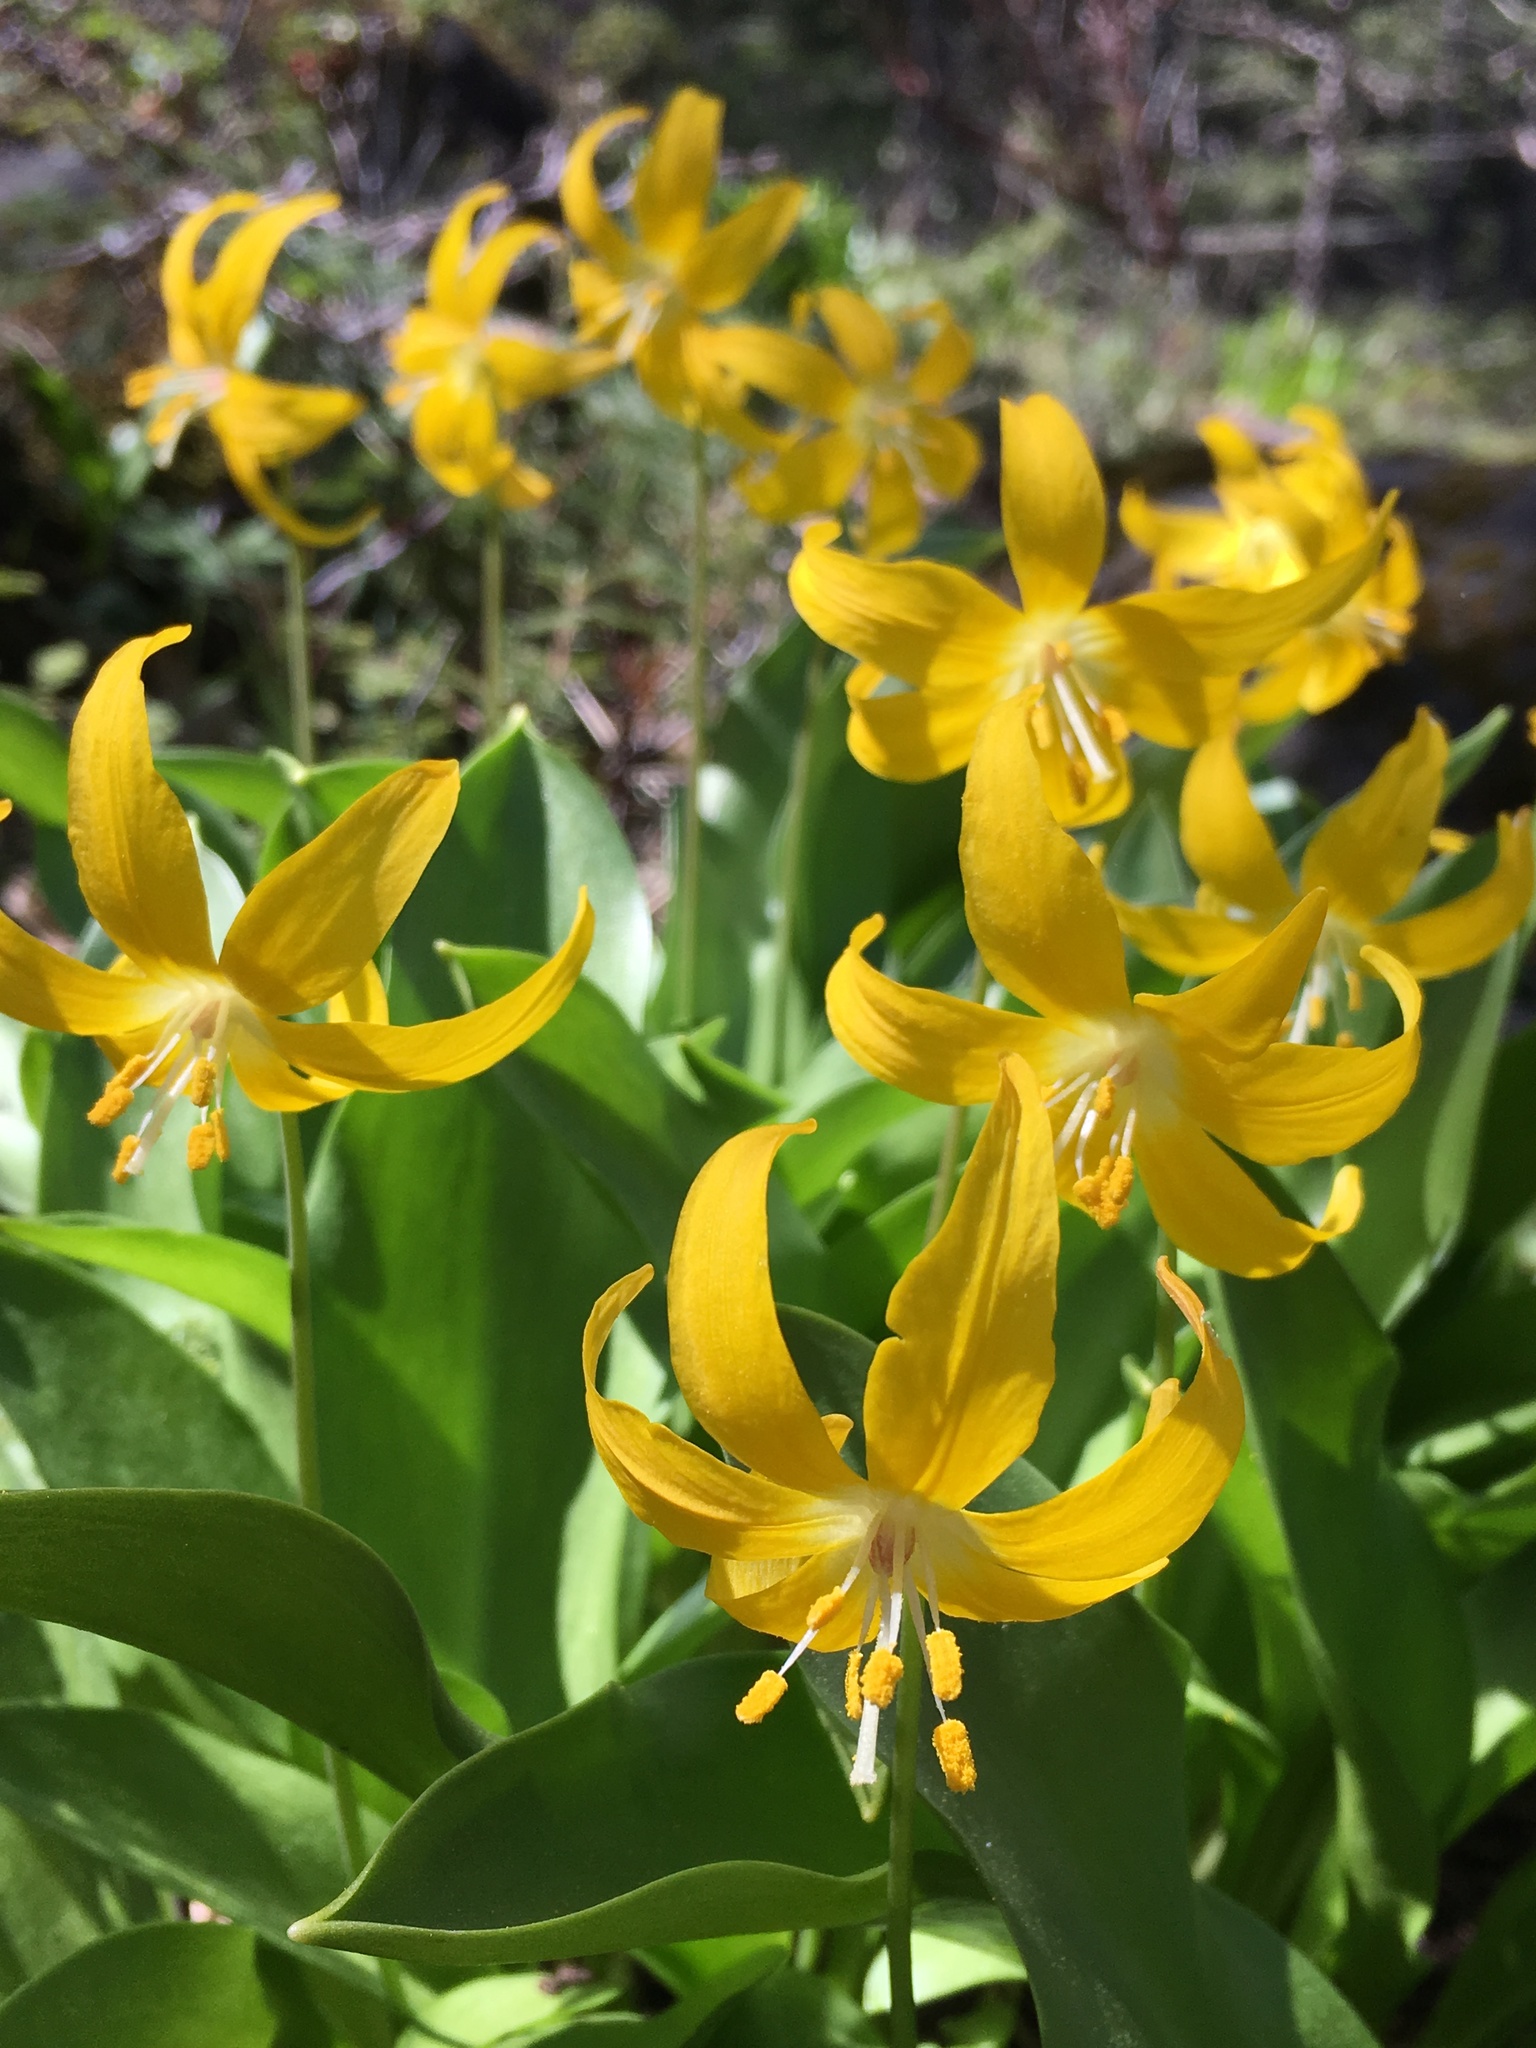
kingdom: Plantae
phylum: Tracheophyta
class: Liliopsida
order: Liliales
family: Liliaceae
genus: Erythronium
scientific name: Erythronium tuolumnense
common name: Tuolumne fawn-lily
